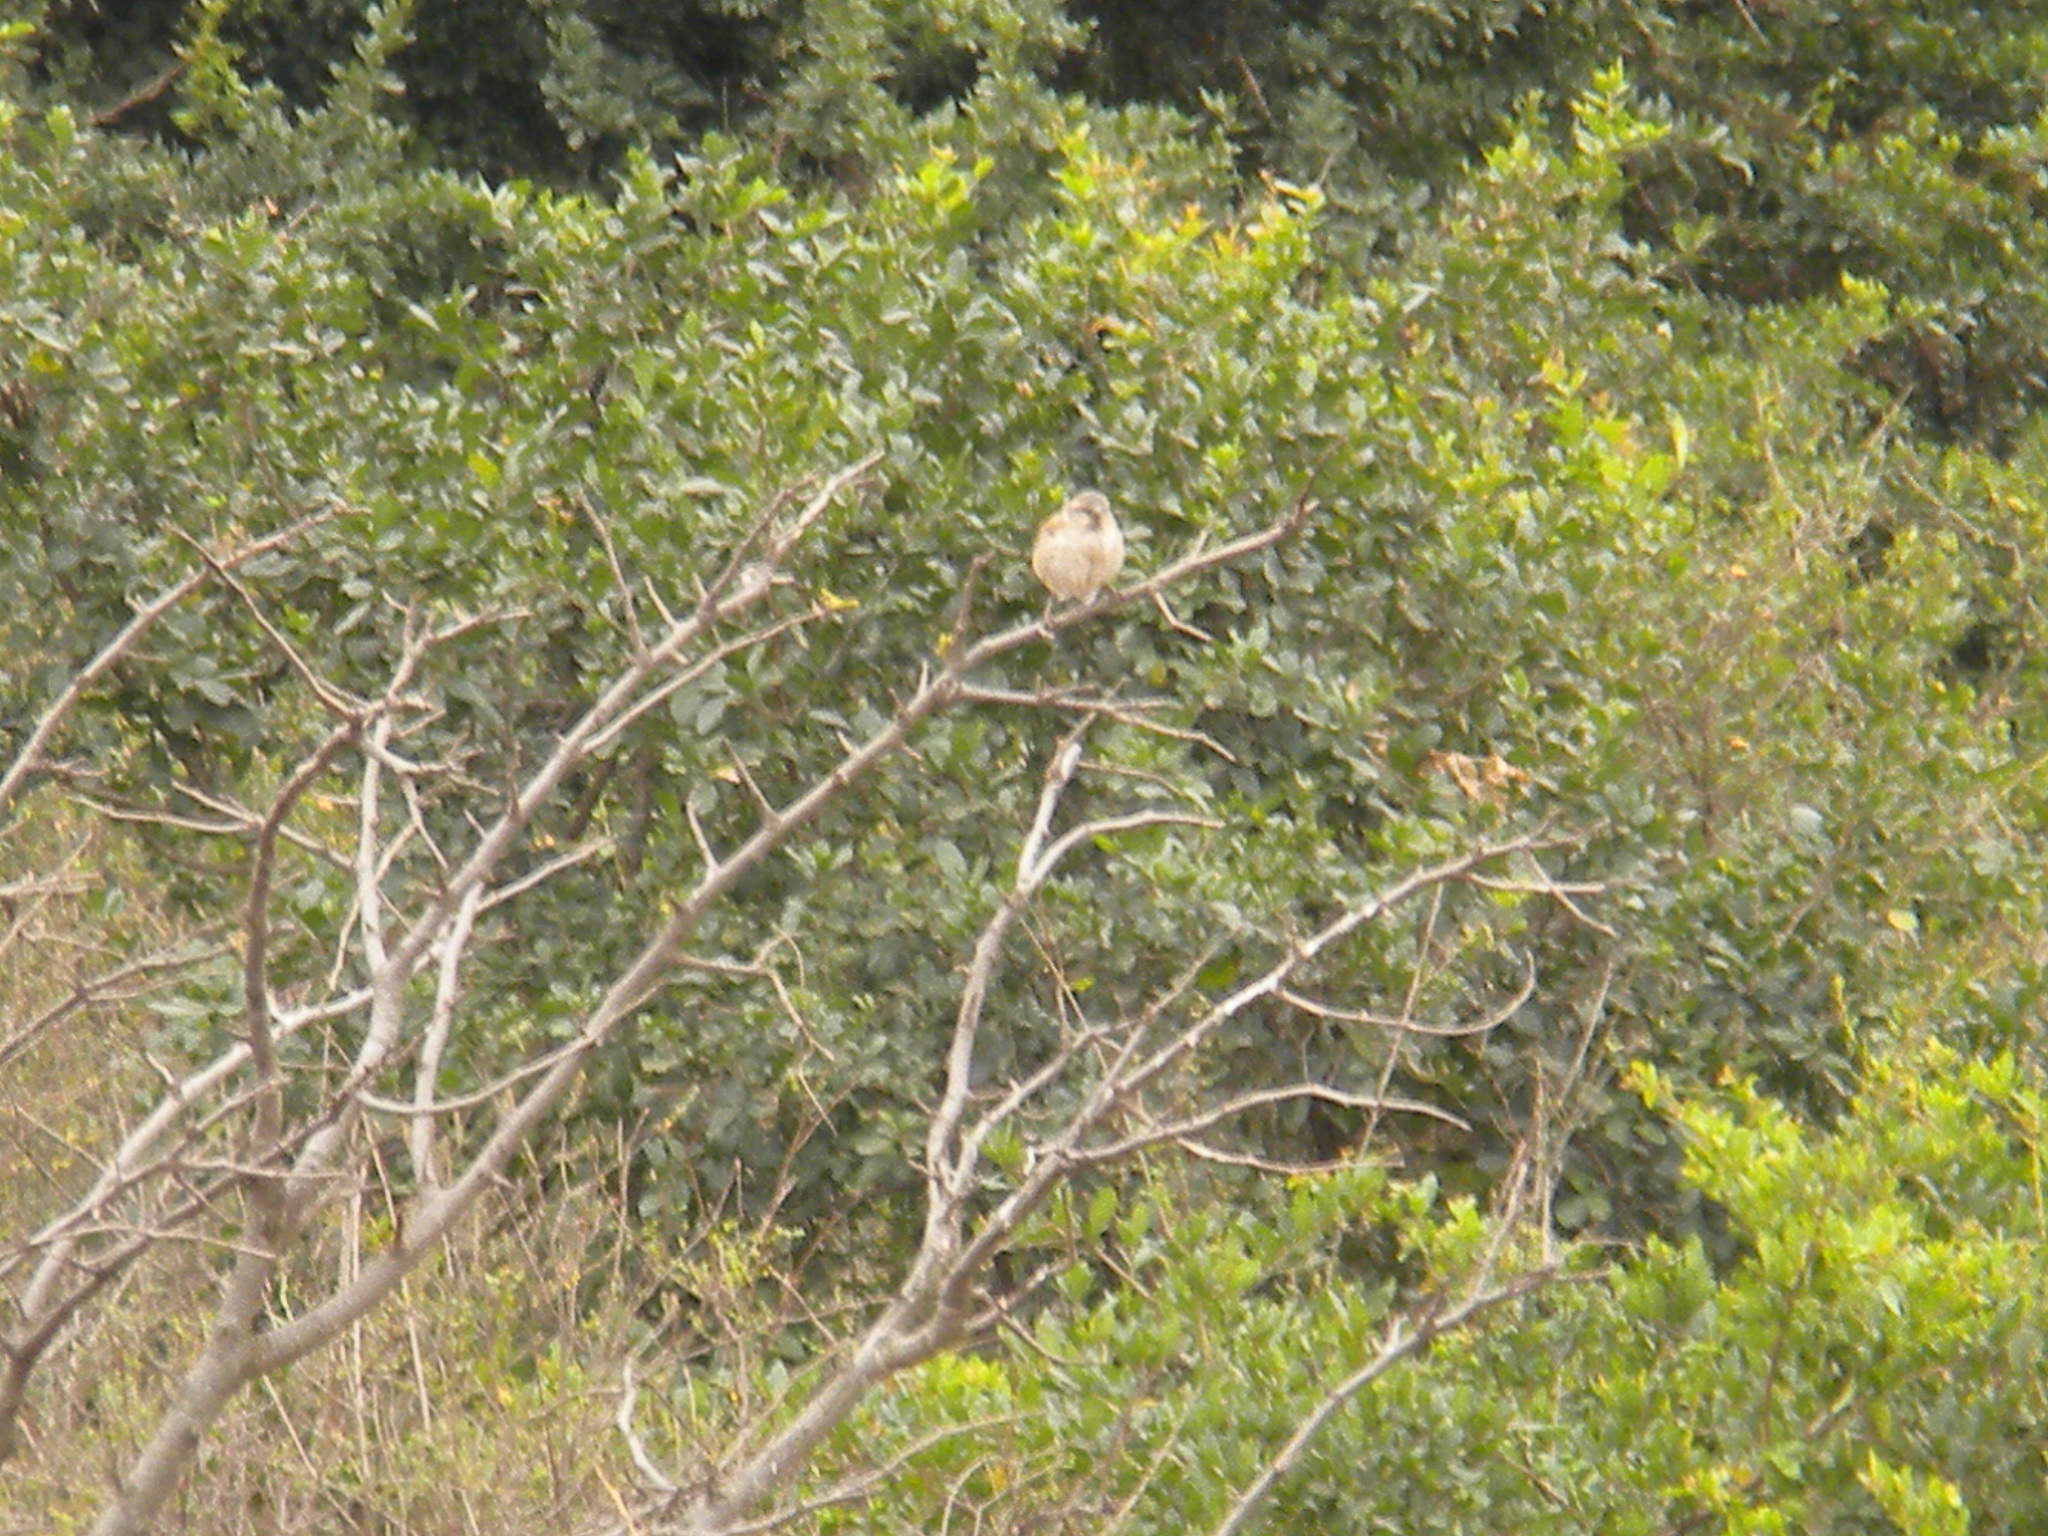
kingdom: Animalia
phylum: Chordata
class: Aves
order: Passeriformes
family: Passeridae
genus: Passer
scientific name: Passer rufocinctus
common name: Kenya sparrow
